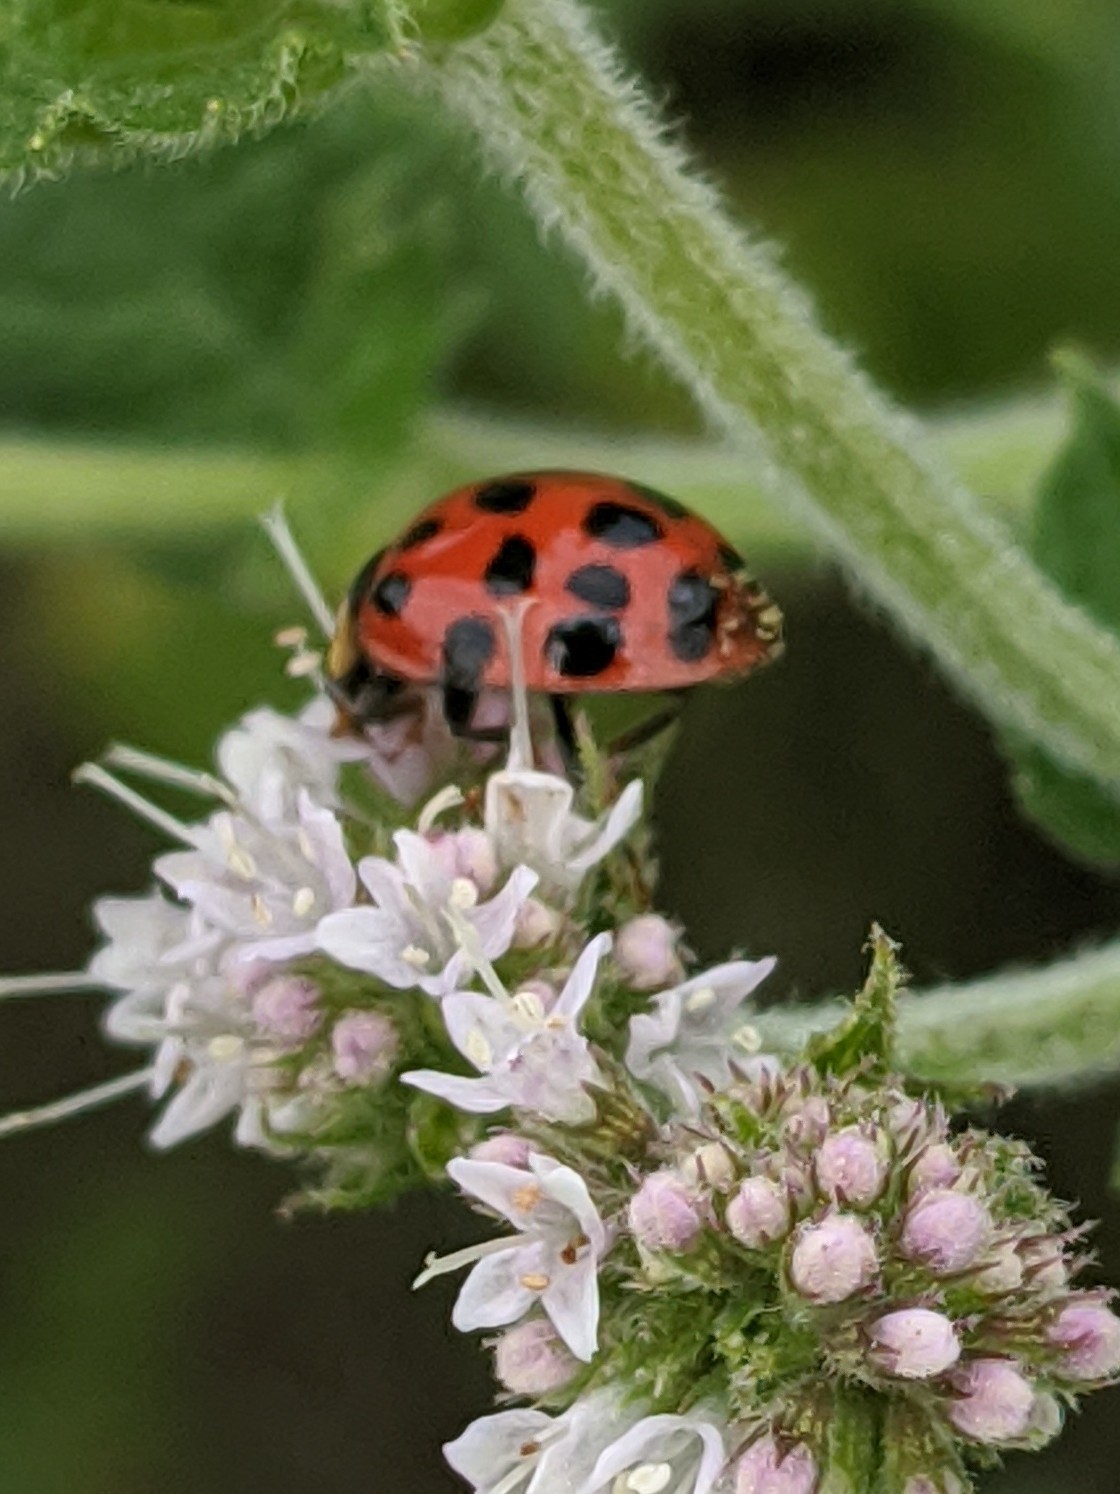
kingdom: Animalia
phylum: Arthropoda
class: Insecta
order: Coleoptera
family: Coccinellidae
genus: Harmonia
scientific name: Harmonia axyridis
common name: Harlequin ladybird
